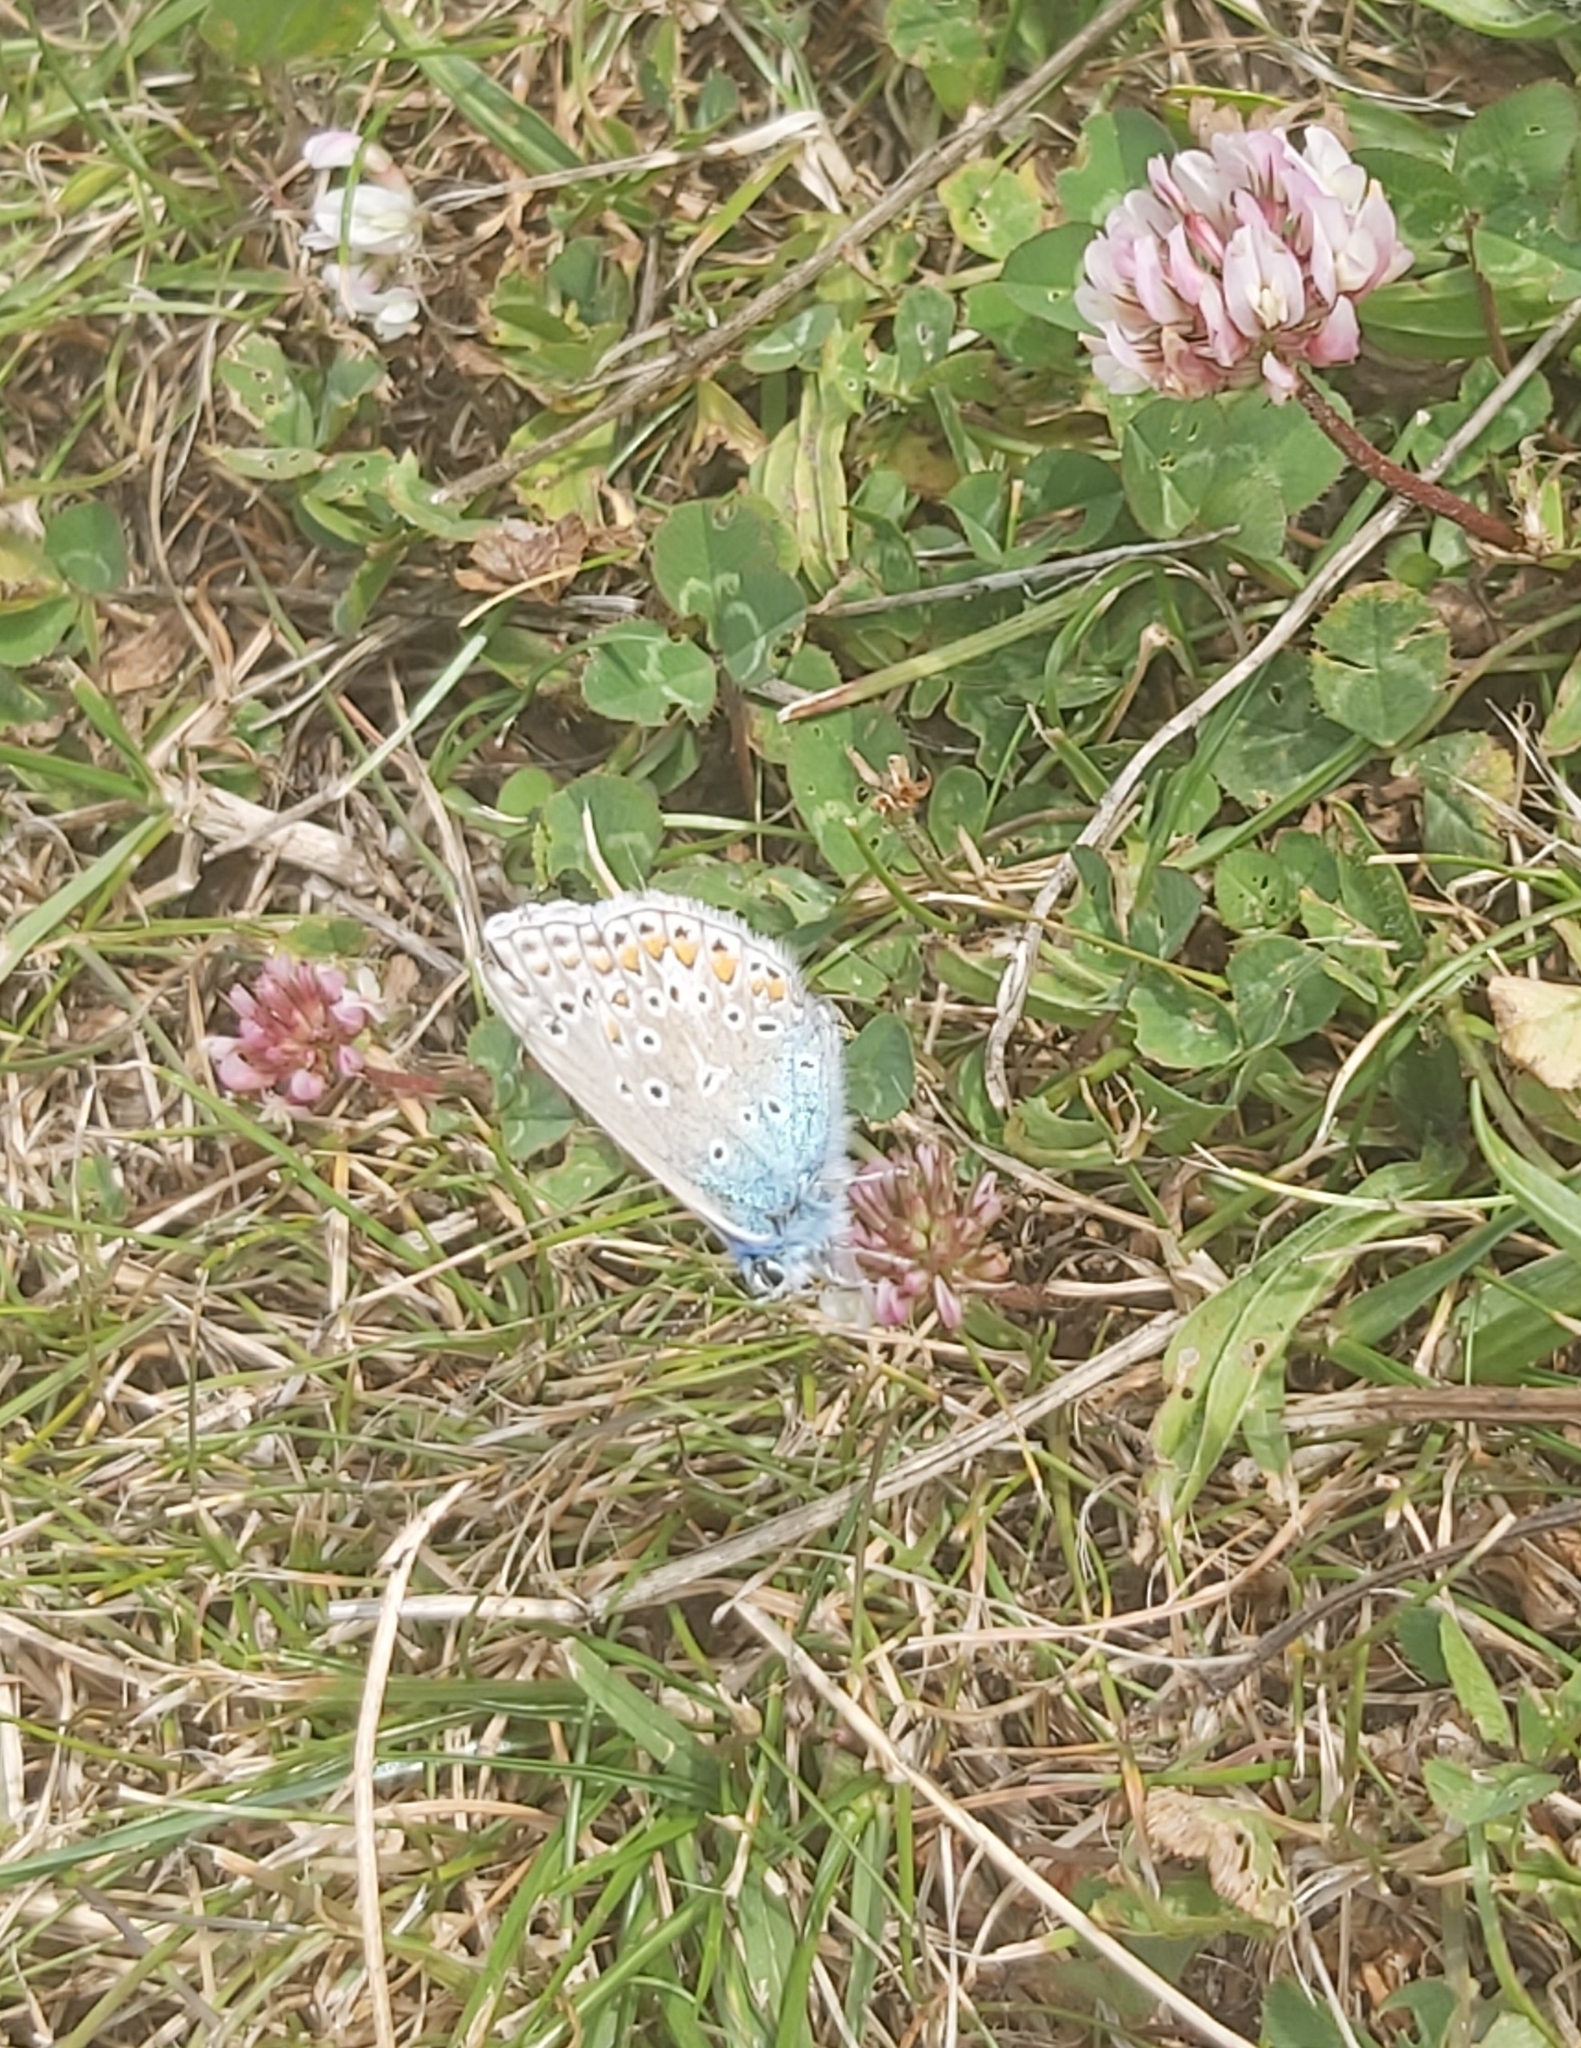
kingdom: Animalia
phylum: Arthropoda
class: Insecta
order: Lepidoptera
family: Lycaenidae
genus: Polyommatus
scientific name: Polyommatus icarus
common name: Common blue
